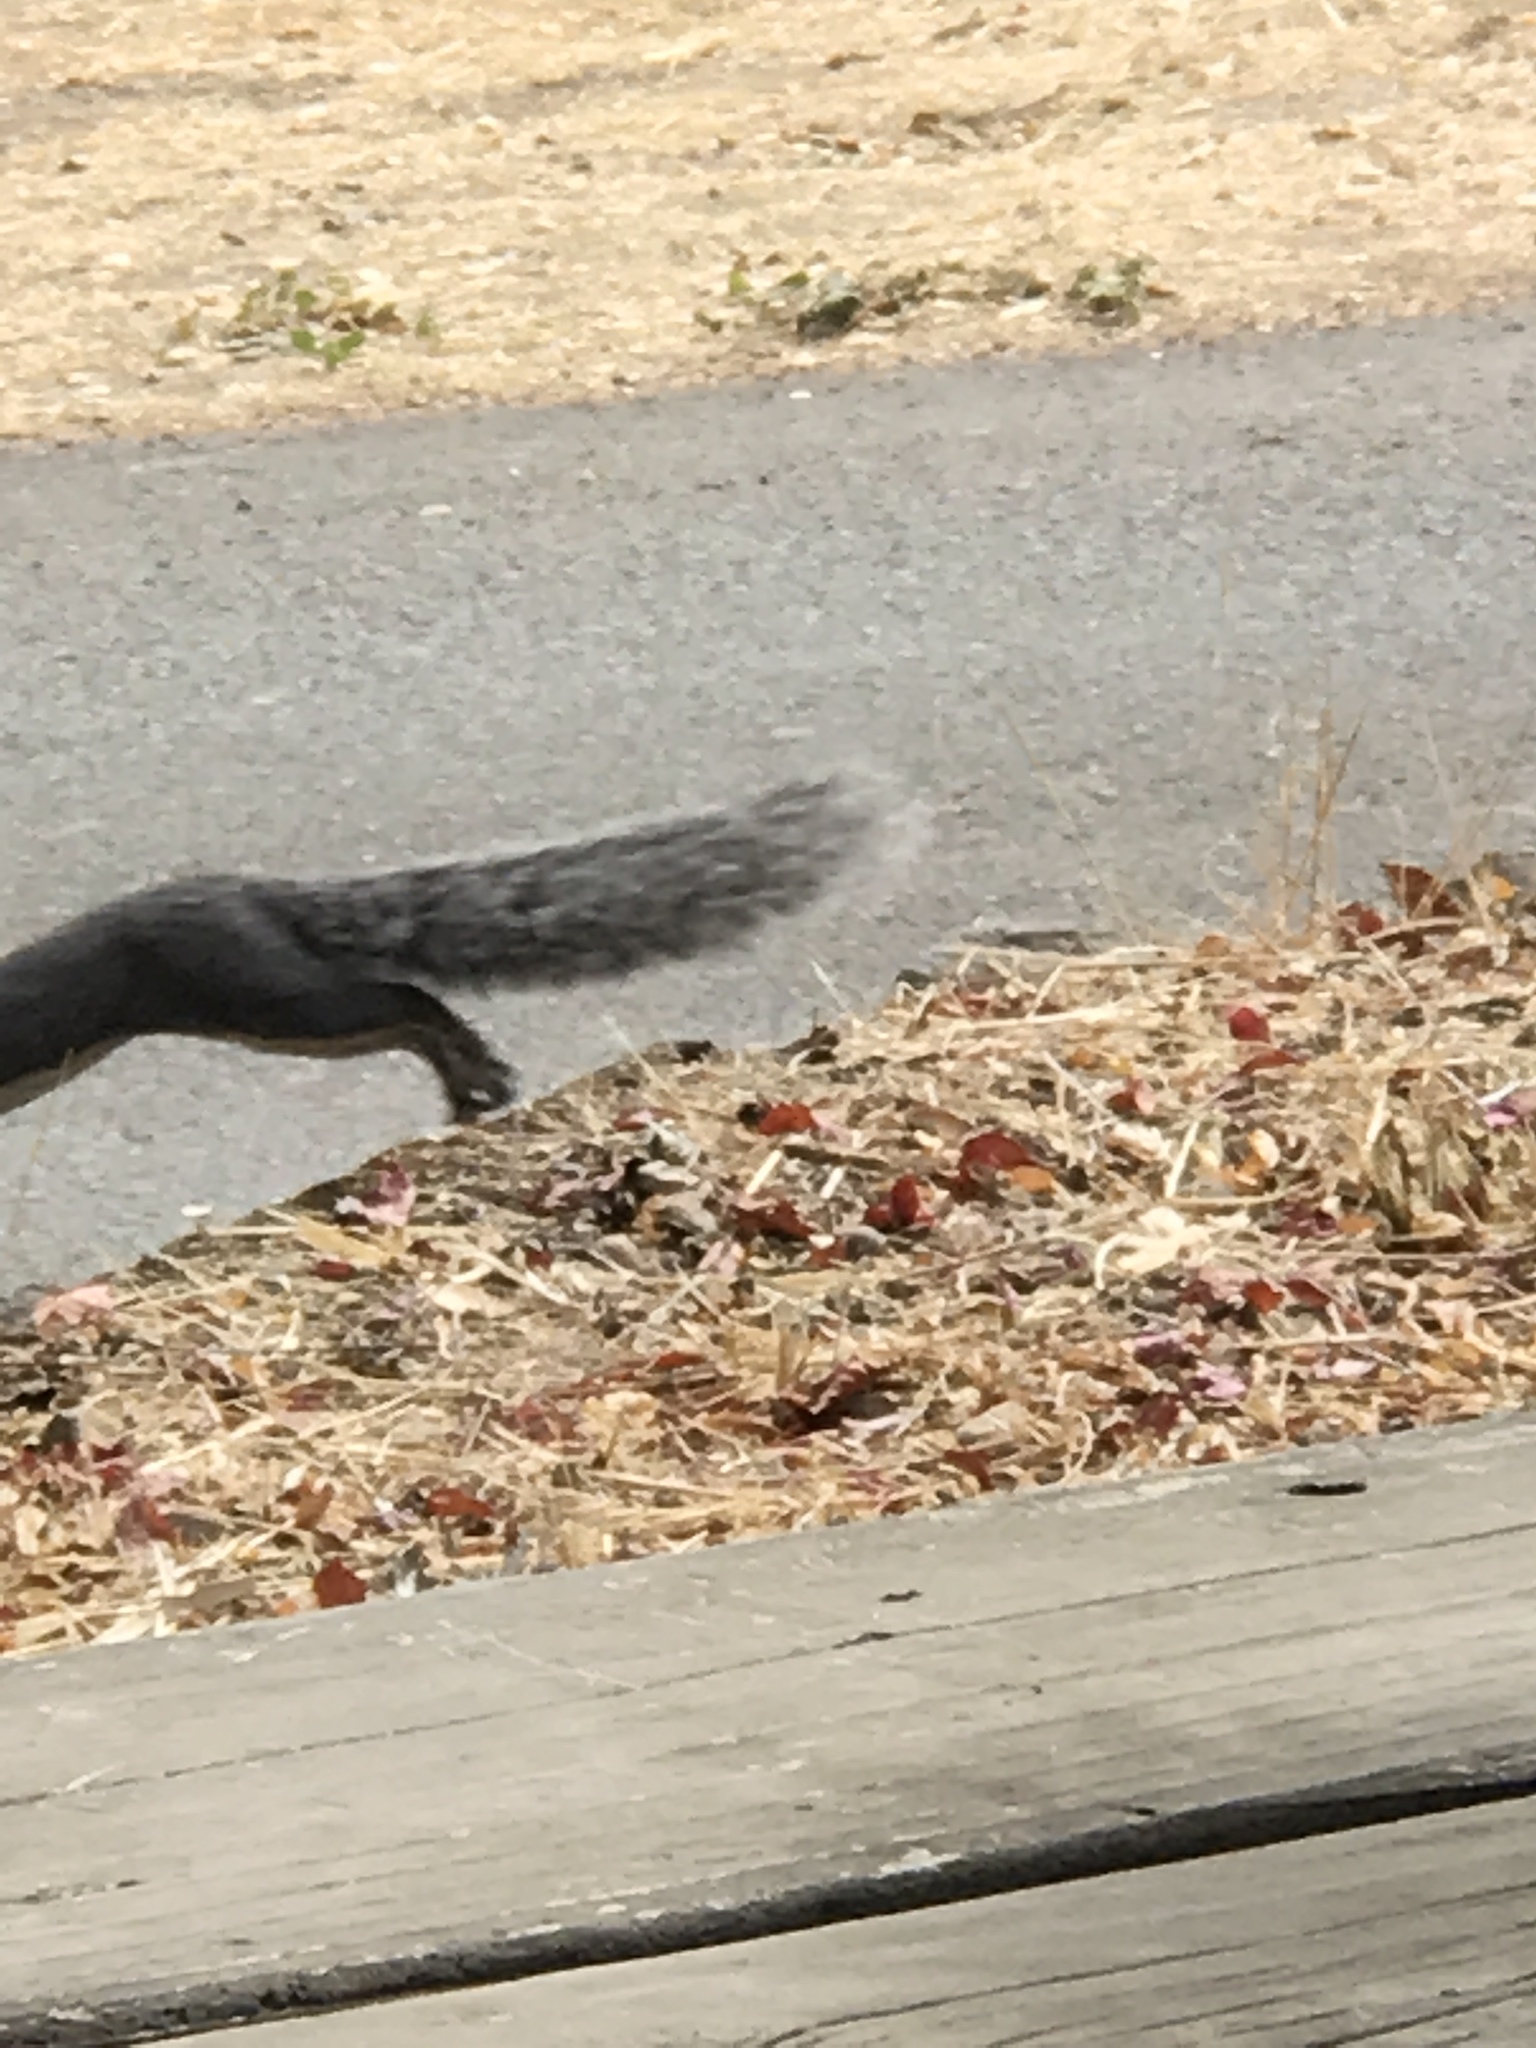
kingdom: Animalia
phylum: Chordata
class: Mammalia
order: Rodentia
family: Sciuridae
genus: Sciurus
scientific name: Sciurus griseus
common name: Western gray squirrel
